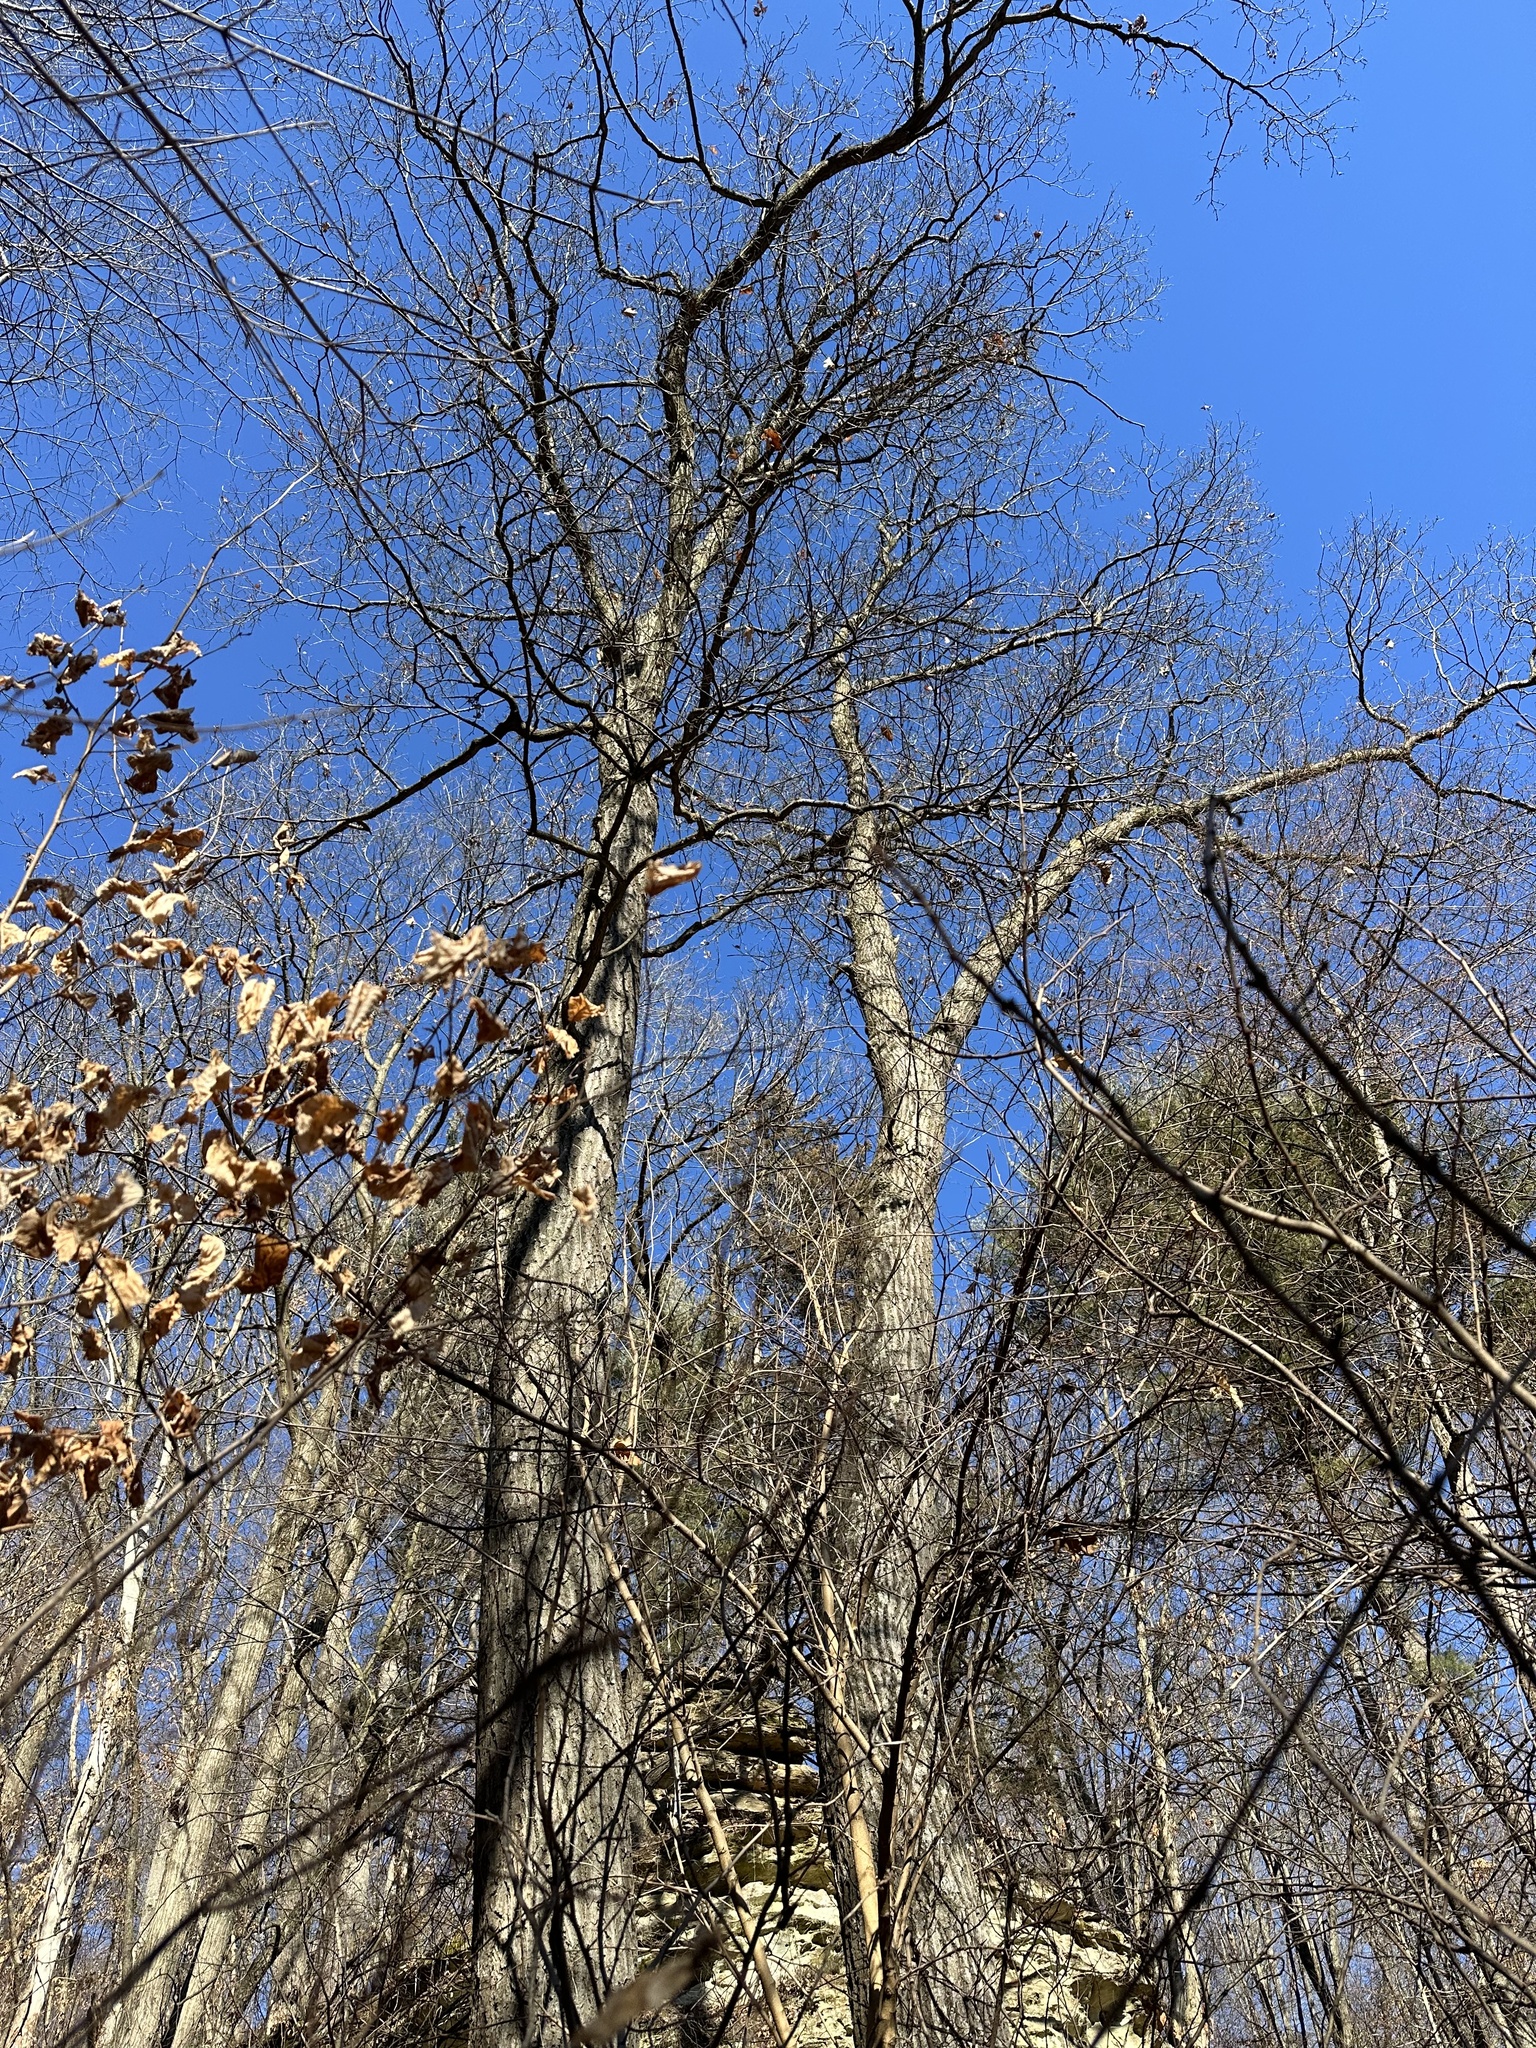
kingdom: Plantae
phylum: Tracheophyta
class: Magnoliopsida
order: Fagales
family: Fagaceae
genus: Quercus
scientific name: Quercus rubra
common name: Red oak
